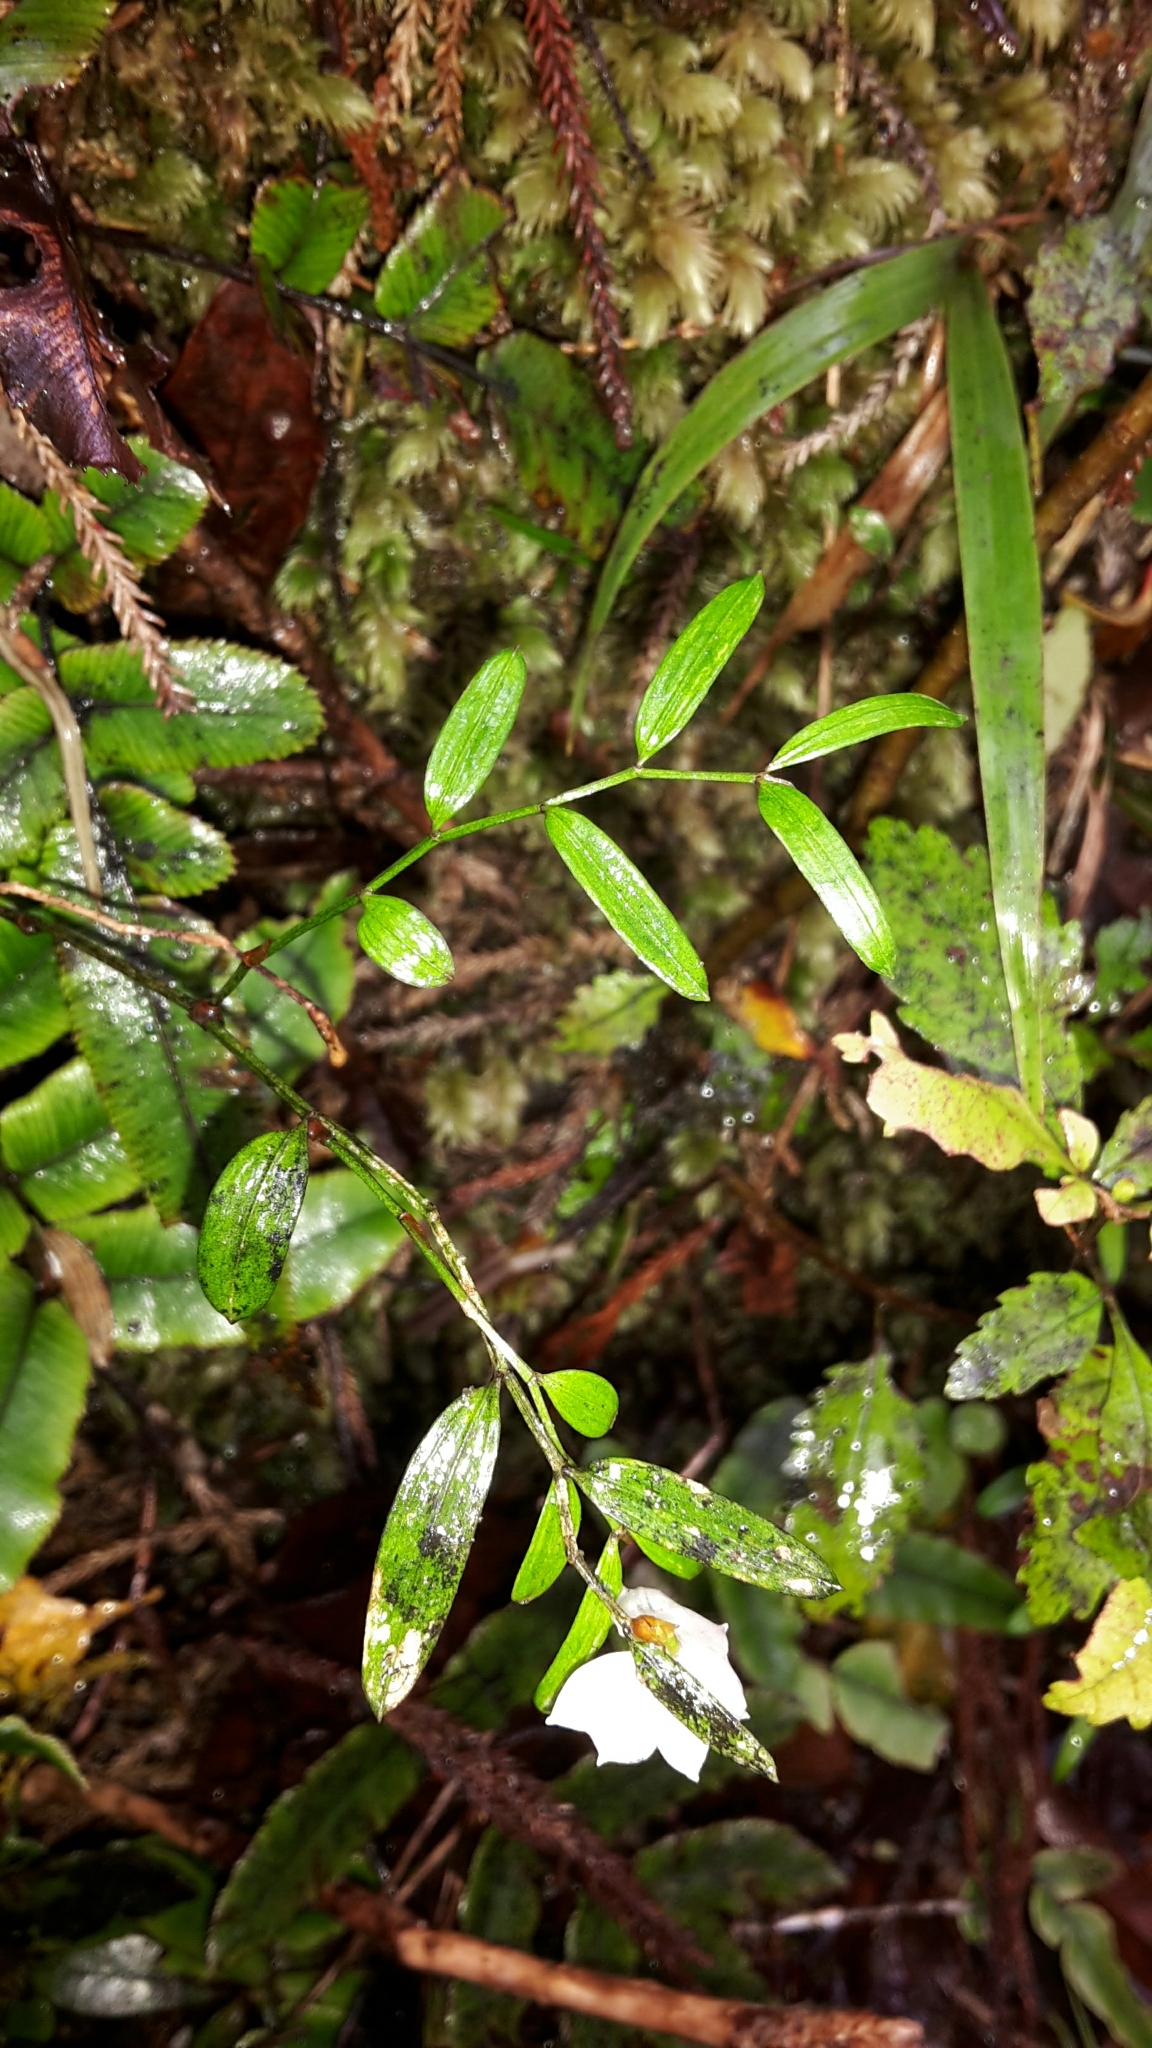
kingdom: Plantae
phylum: Tracheophyta
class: Liliopsida
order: Liliales
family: Alstroemeriaceae
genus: Luzuriaga
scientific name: Luzuriaga parviflora
